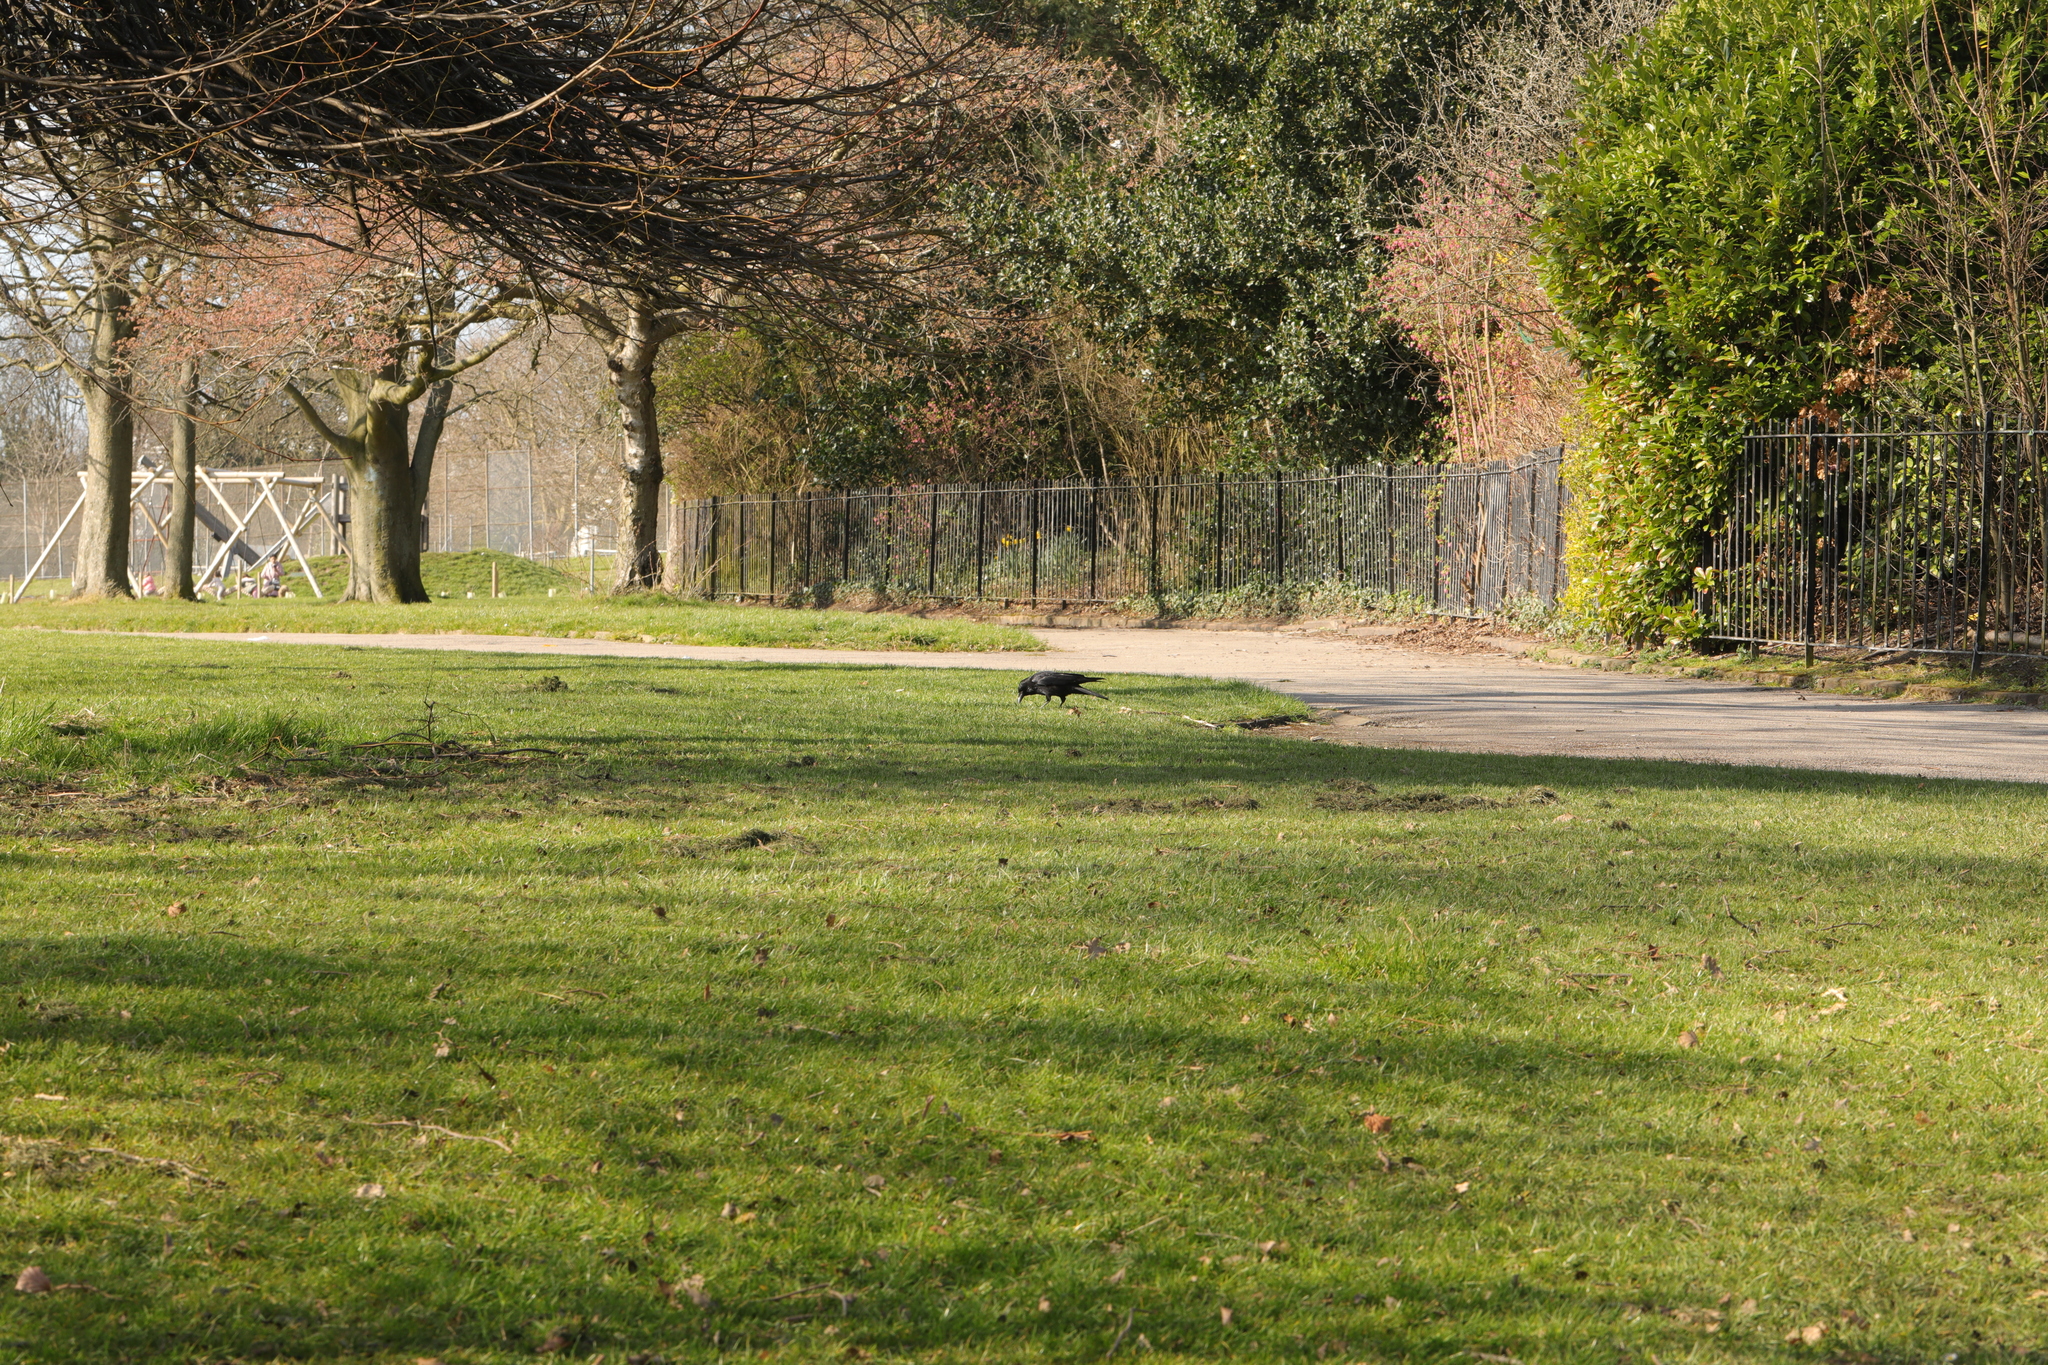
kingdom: Animalia
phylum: Chordata
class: Aves
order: Passeriformes
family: Corvidae
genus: Corvus
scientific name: Corvus corone
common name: Carrion crow
